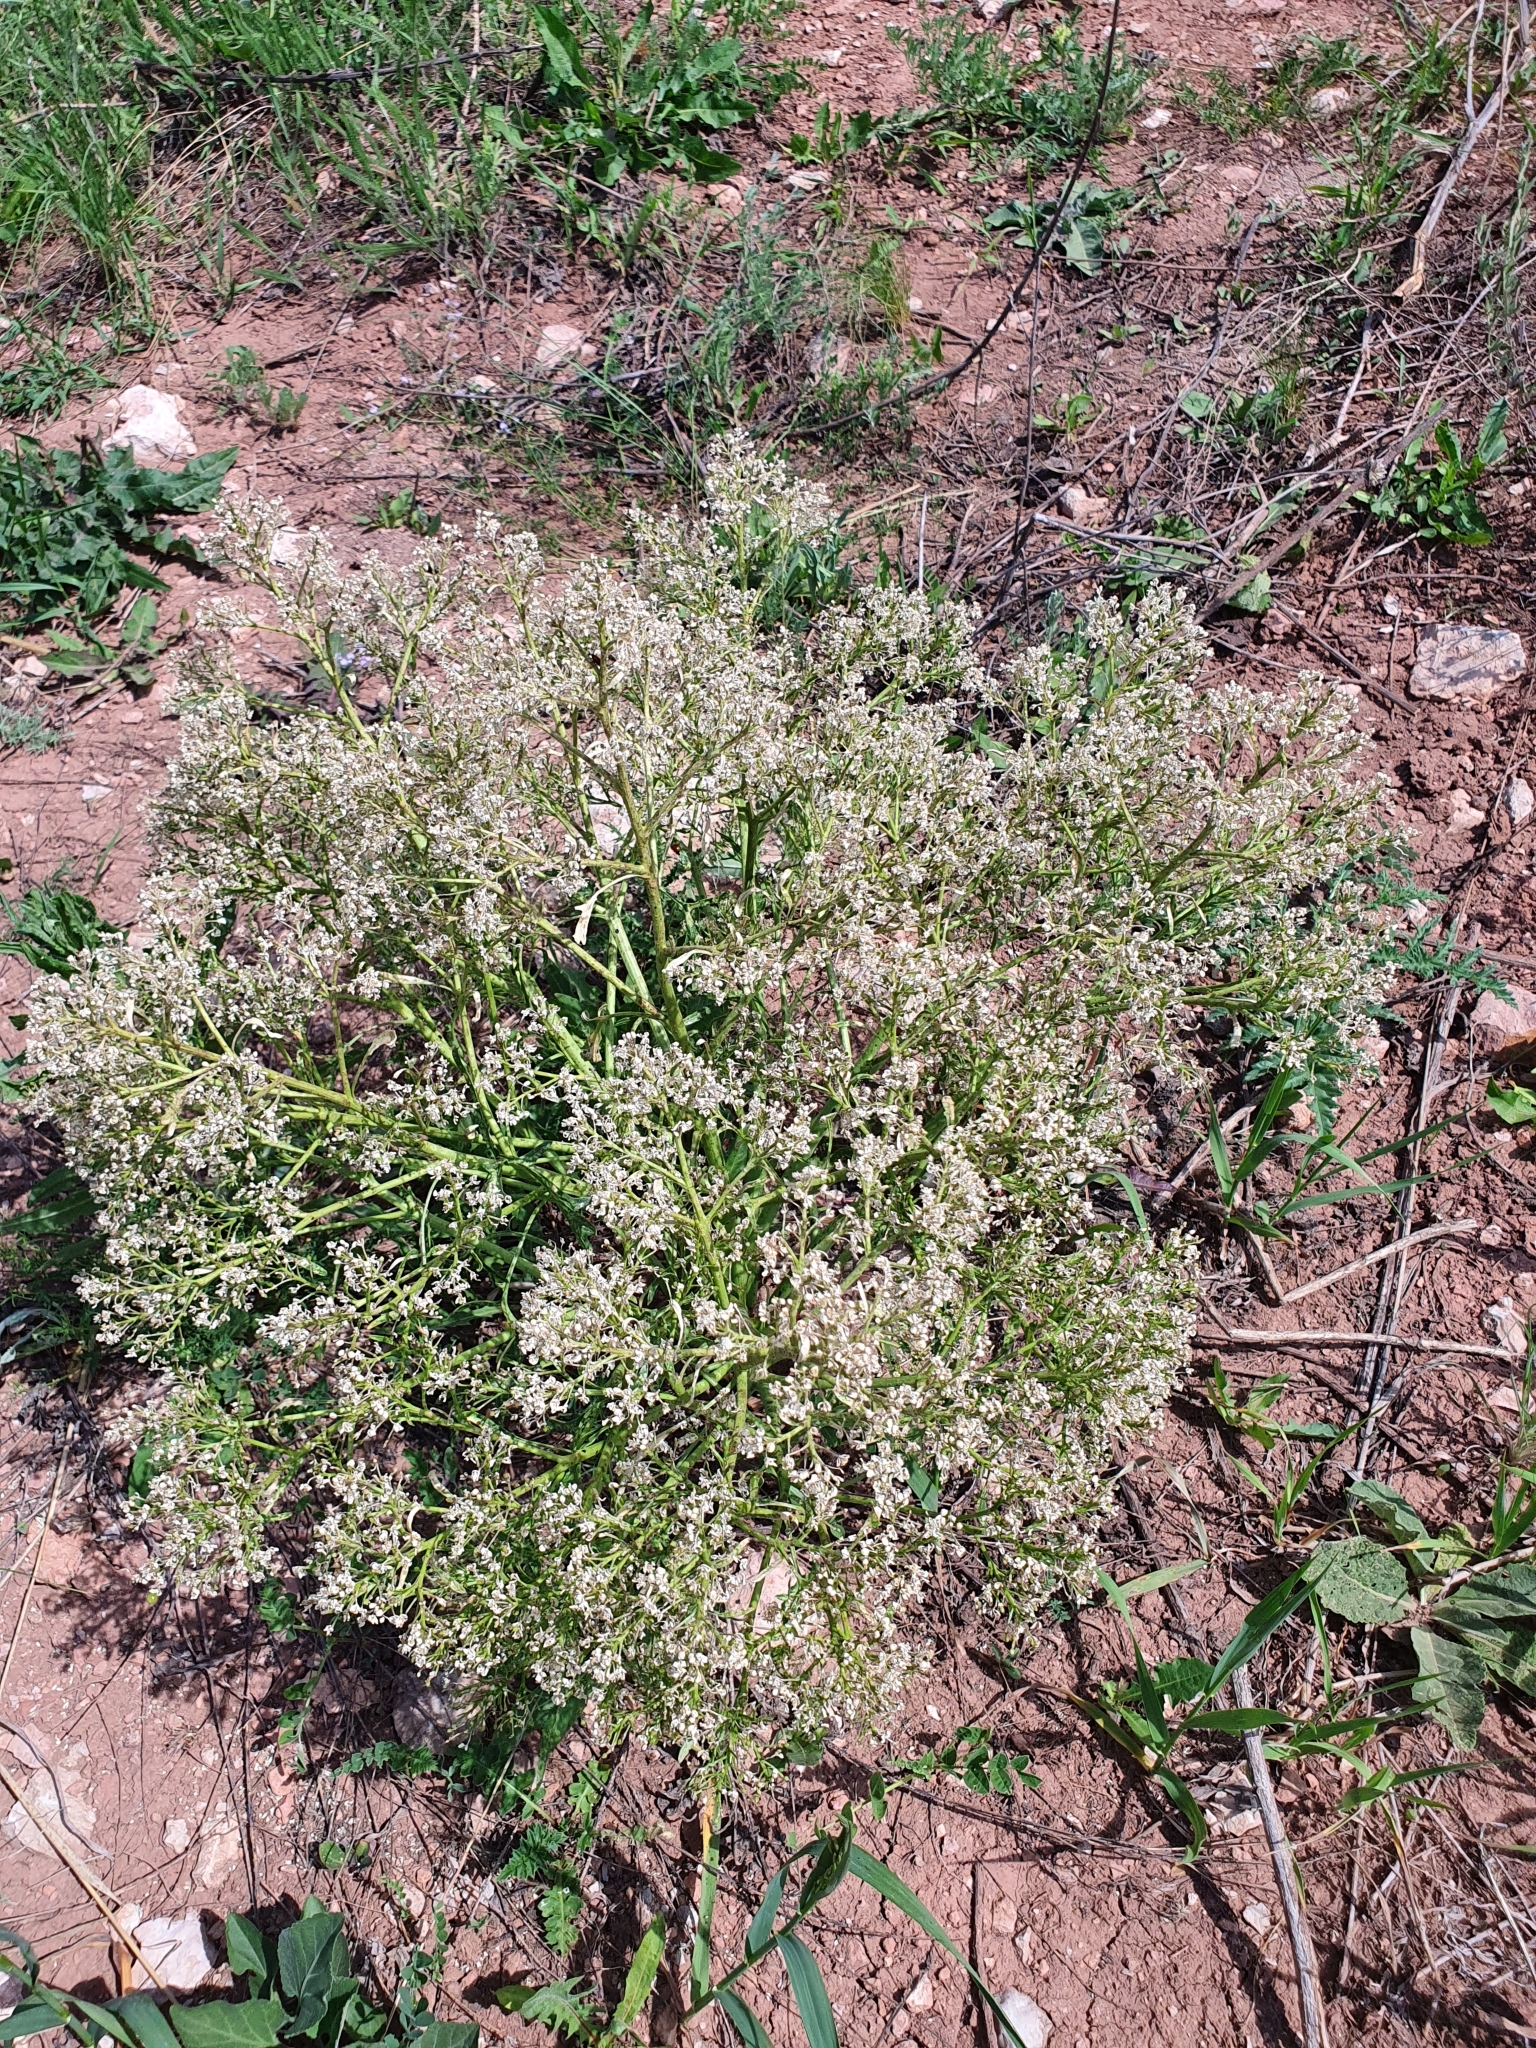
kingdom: Plantae
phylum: Tracheophyta
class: Magnoliopsida
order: Brassicales
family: Brassicaceae
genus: Crambe
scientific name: Crambe tataria
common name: Tartarian breadplant
